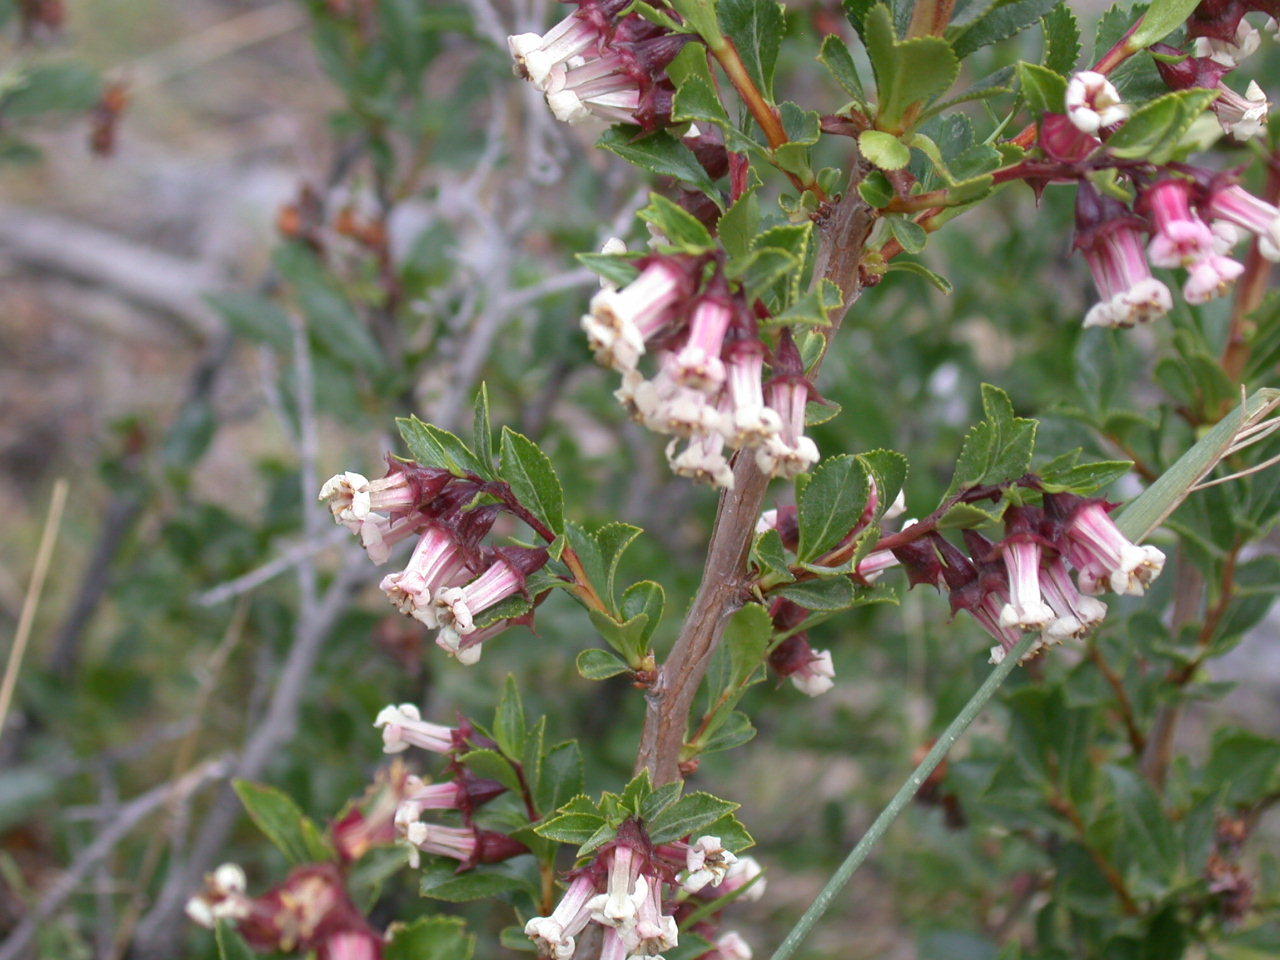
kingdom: Plantae
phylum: Tracheophyta
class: Magnoliopsida
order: Escalloniales
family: Escalloniaceae
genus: Escallonia
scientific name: Escallonia alpina
